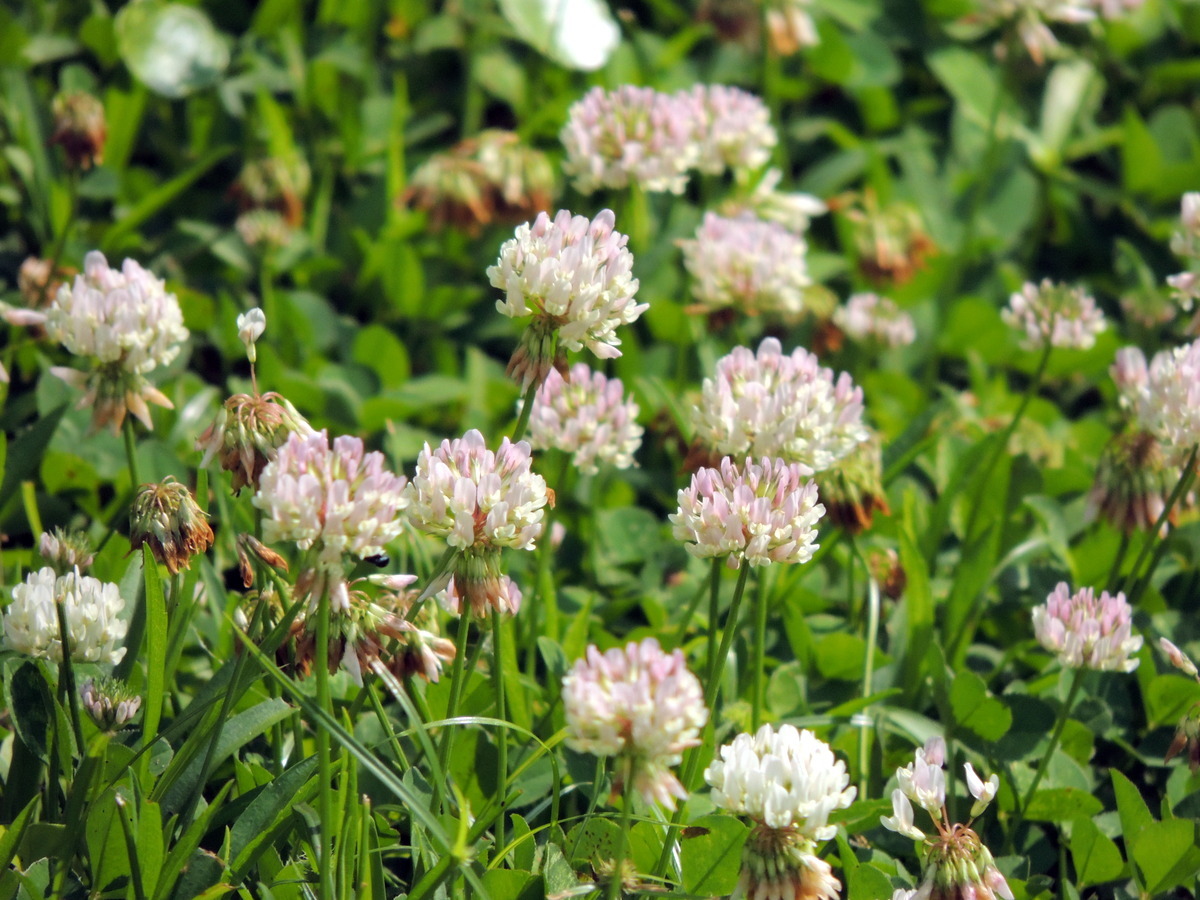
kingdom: Plantae
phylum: Tracheophyta
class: Magnoliopsida
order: Fabales
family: Fabaceae
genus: Trifolium
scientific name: Trifolium repens
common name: White clover
